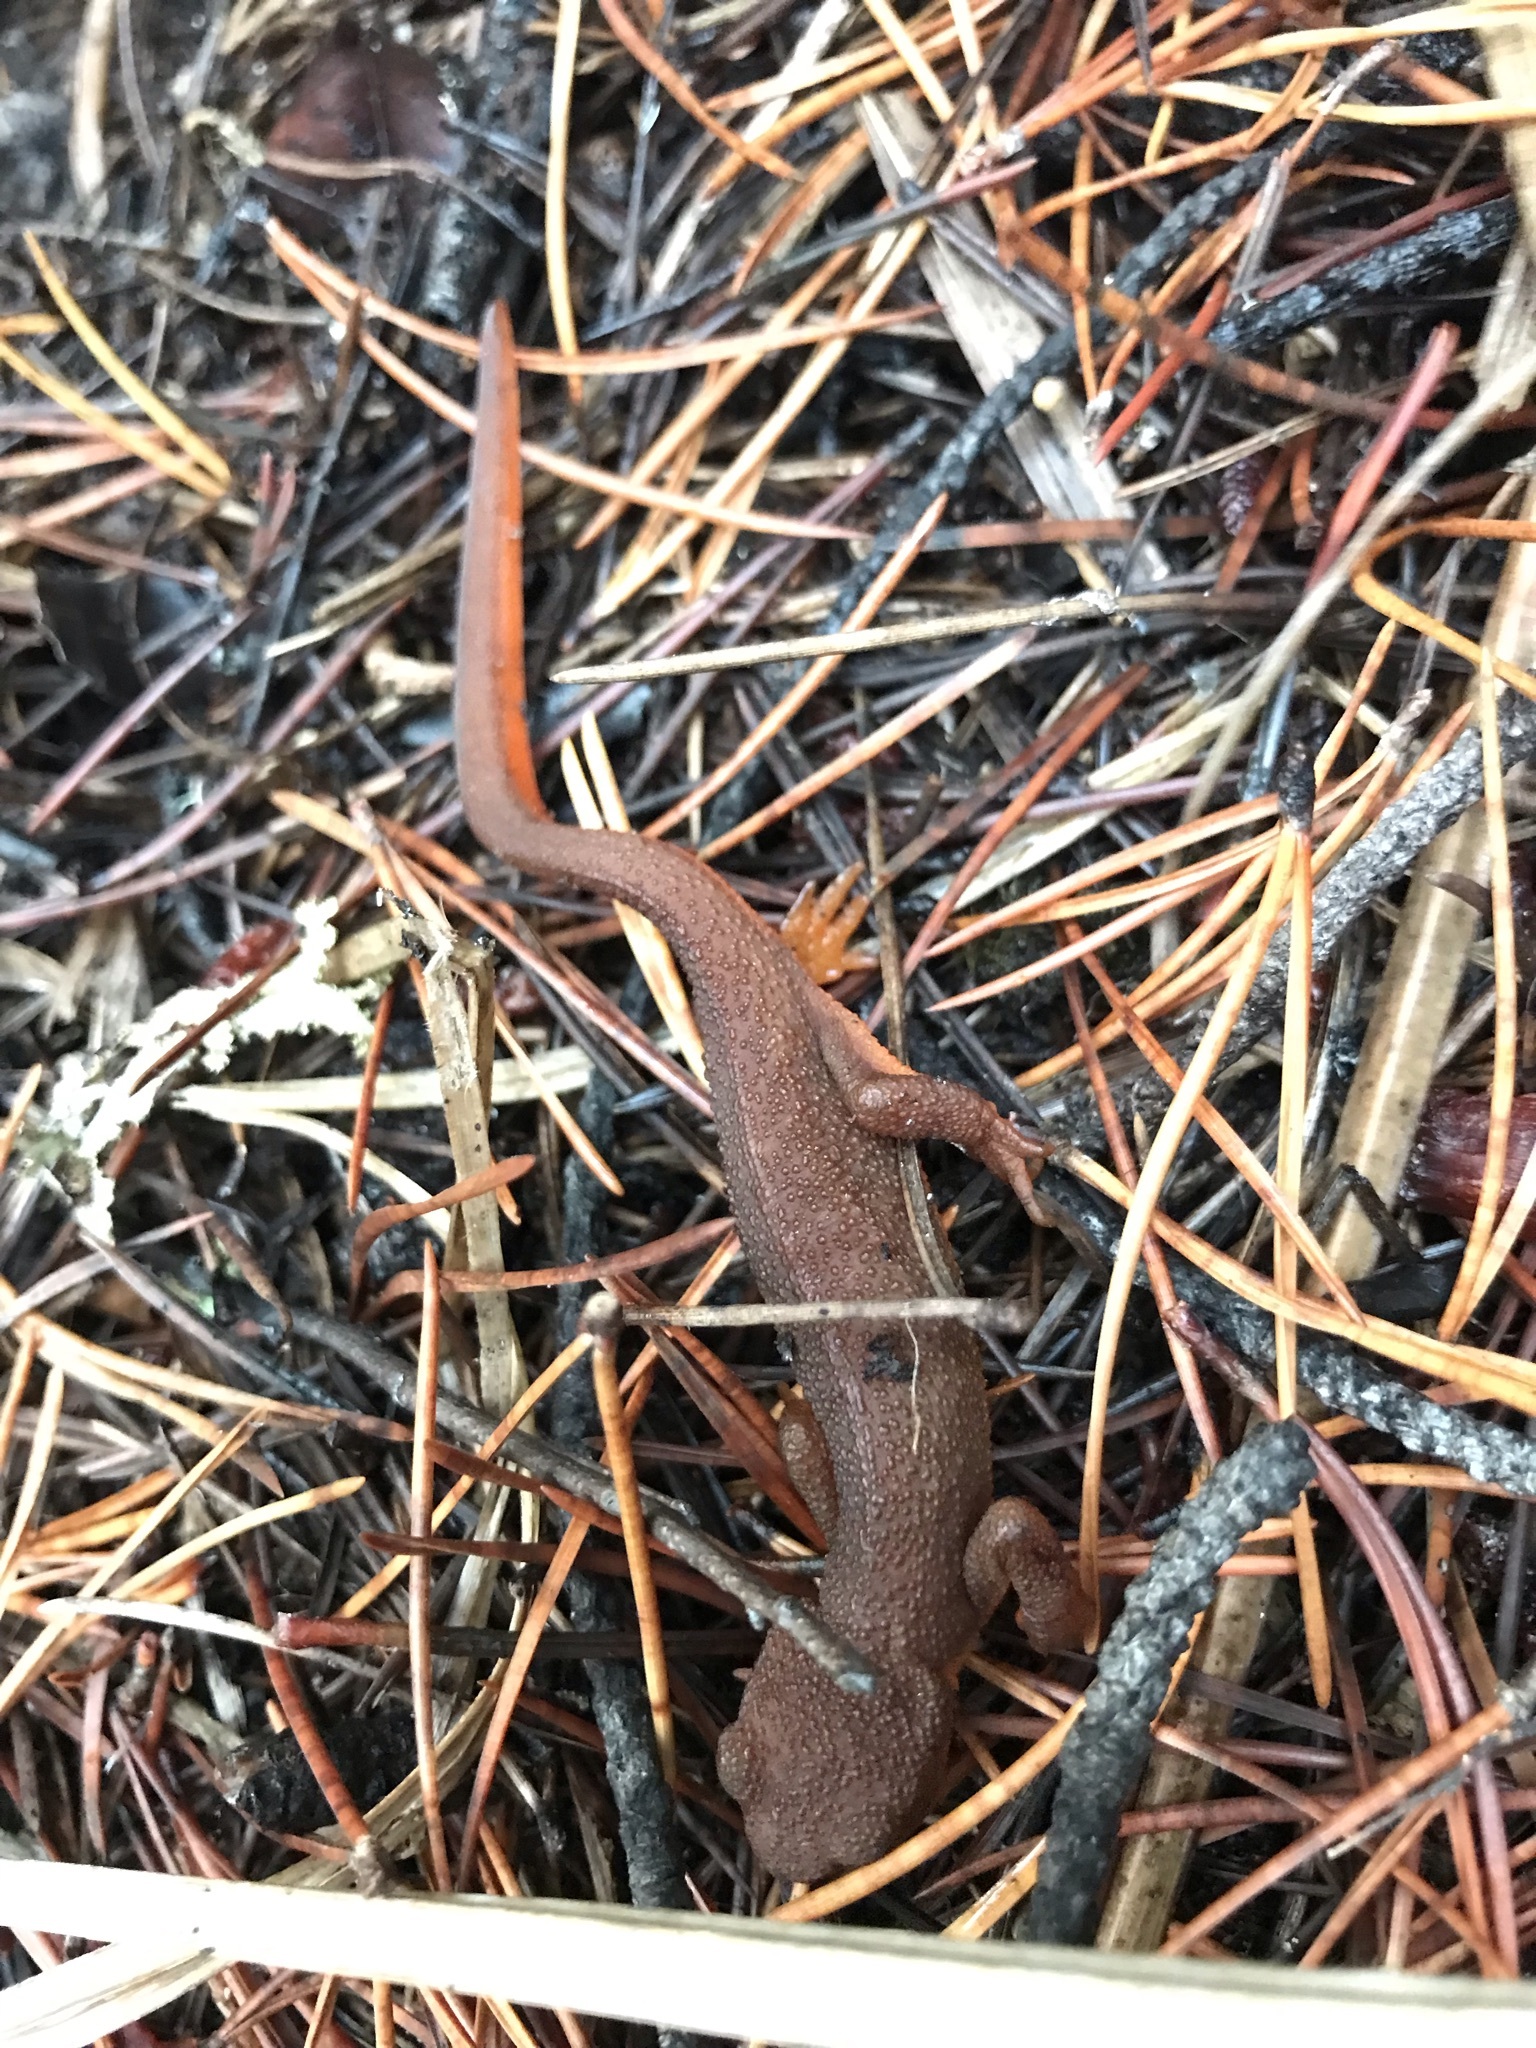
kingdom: Animalia
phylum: Chordata
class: Amphibia
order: Caudata
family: Salamandridae
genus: Taricha
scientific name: Taricha granulosa
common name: Roughskin newt
